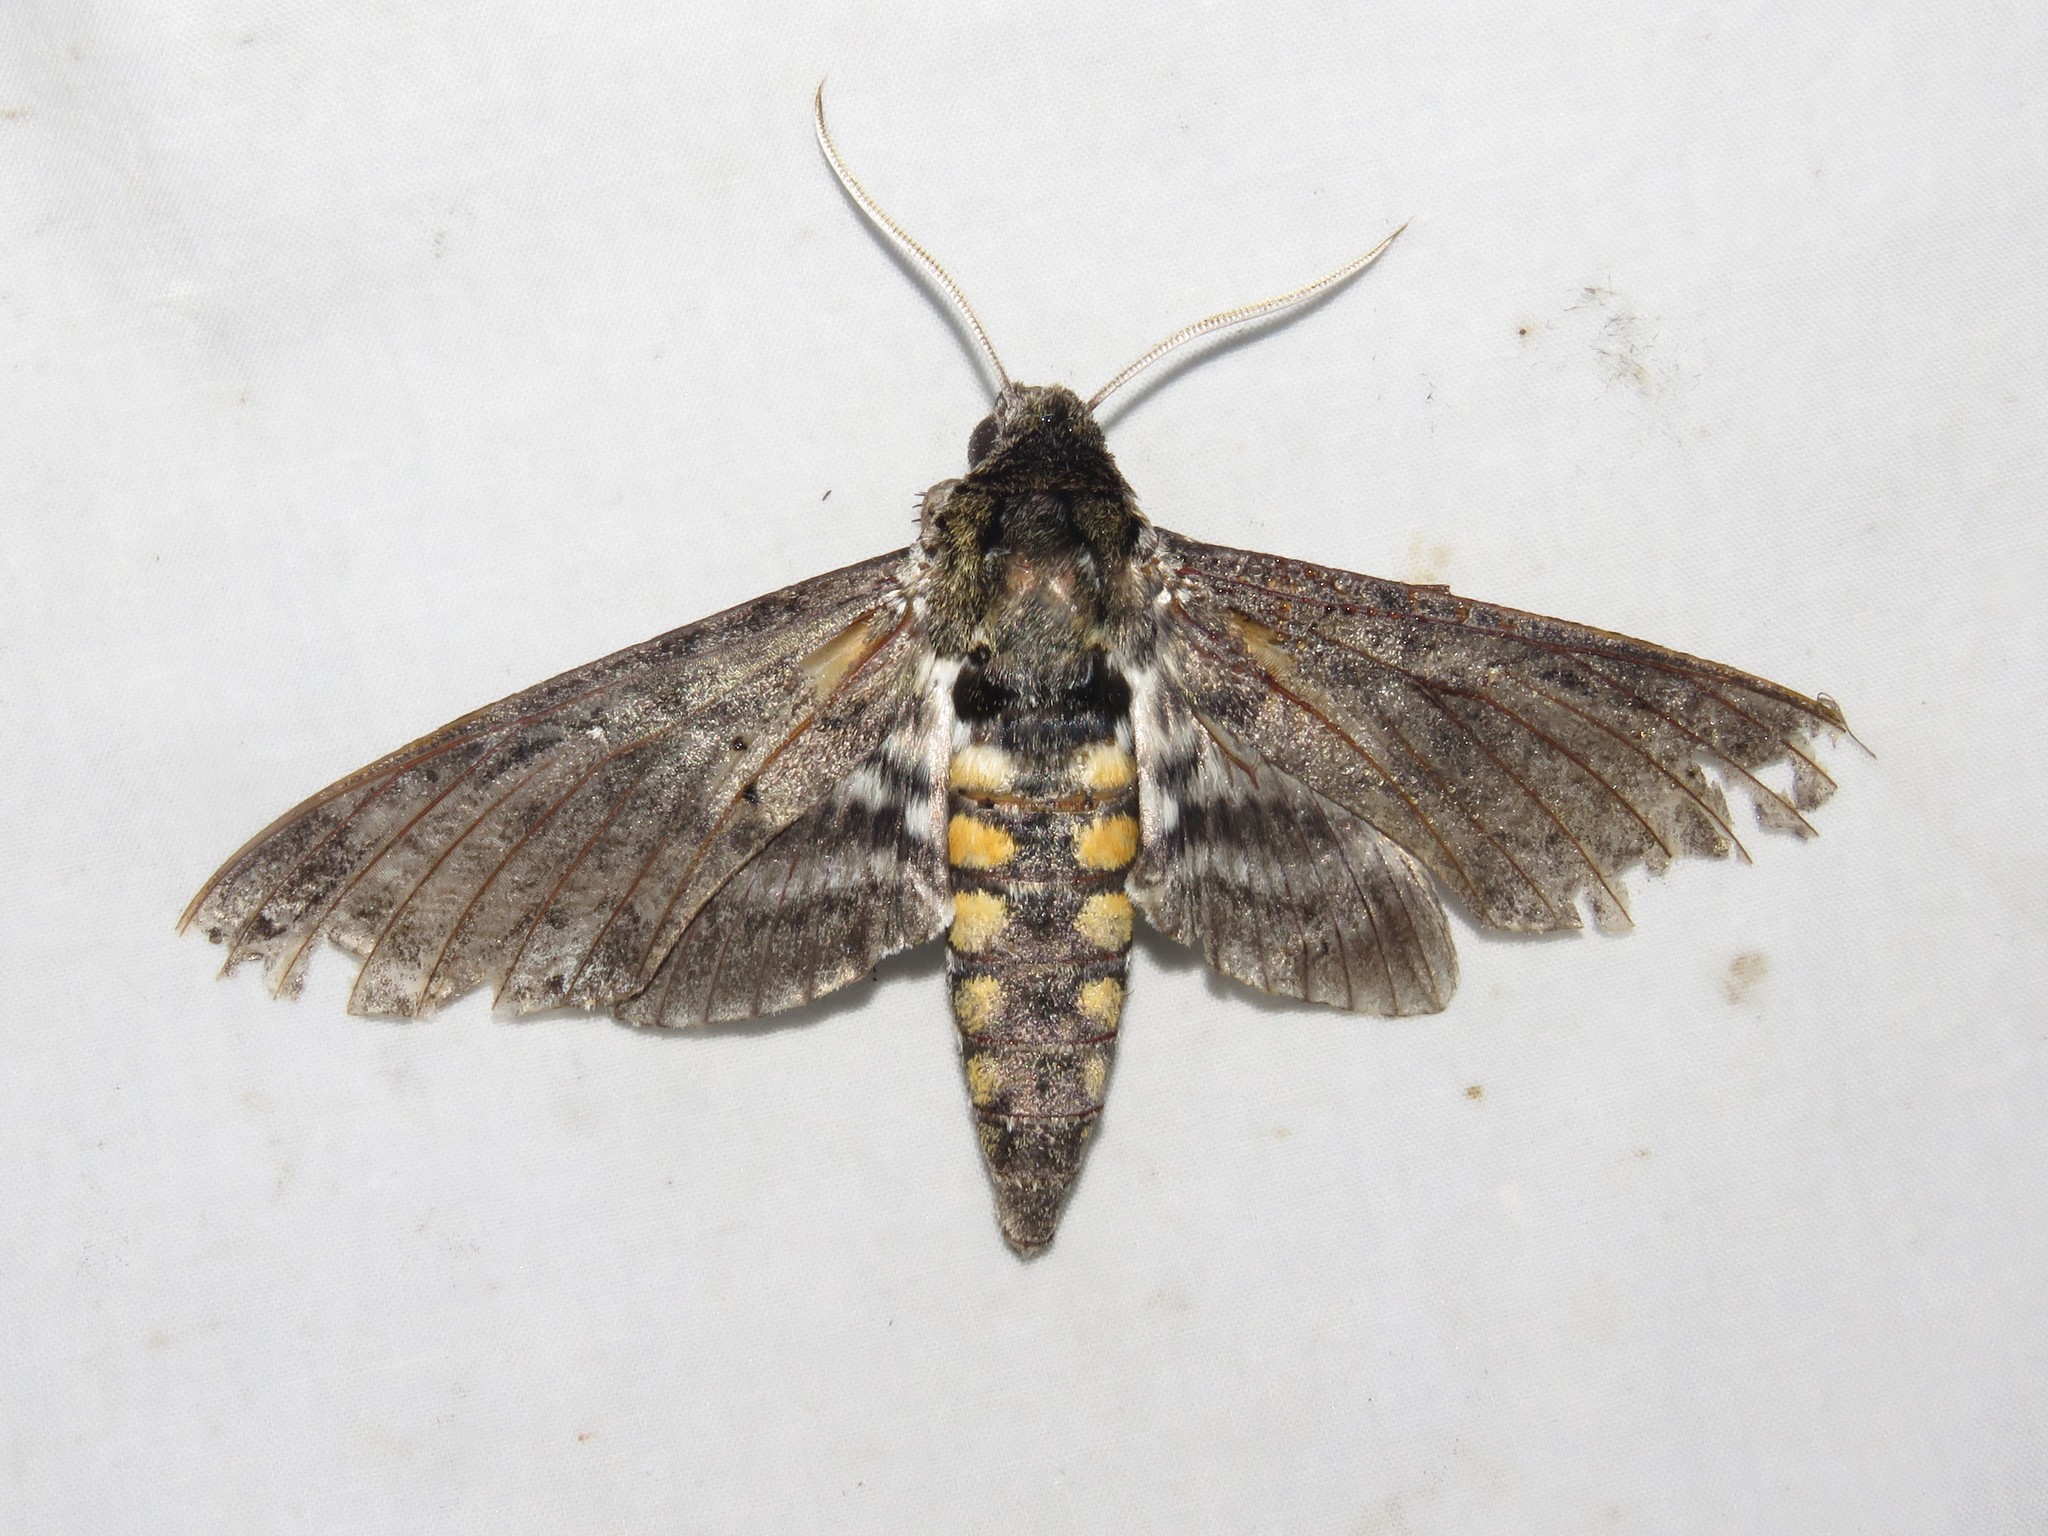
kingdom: Animalia
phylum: Arthropoda
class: Insecta
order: Lepidoptera
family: Sphingidae
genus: Manduca
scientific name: Manduca sexta
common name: Carolina sphinx
